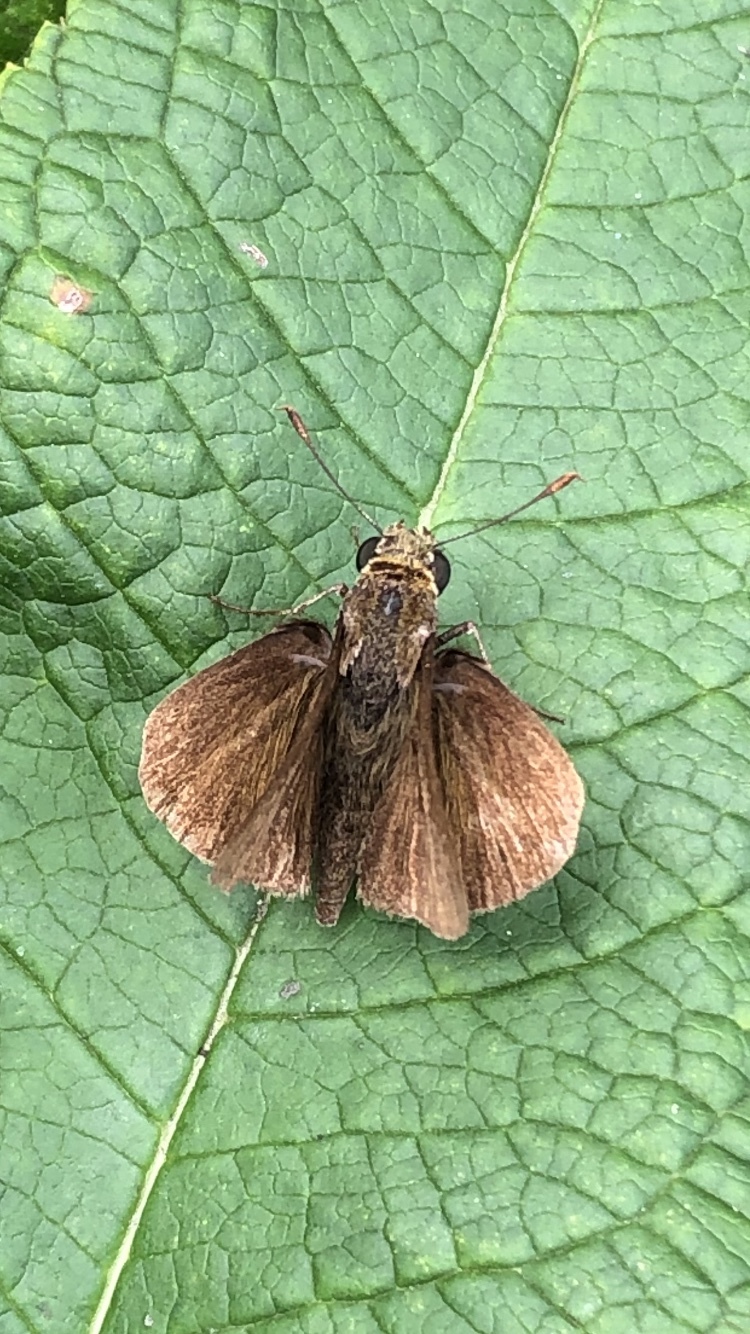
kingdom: Animalia
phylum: Arthropoda
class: Insecta
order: Lepidoptera
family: Hesperiidae
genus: Euphyes
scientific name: Euphyes vestris
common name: Dun skipper
